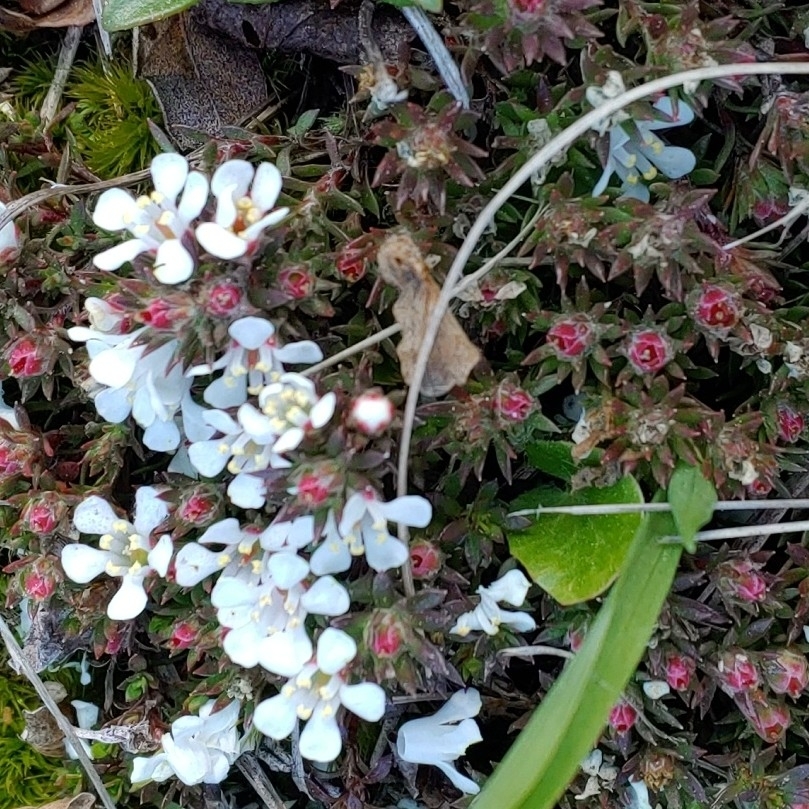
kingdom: Plantae
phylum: Tracheophyta
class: Magnoliopsida
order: Ericales
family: Diapensiaceae
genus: Pyxidanthera
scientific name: Pyxidanthera barbulata
